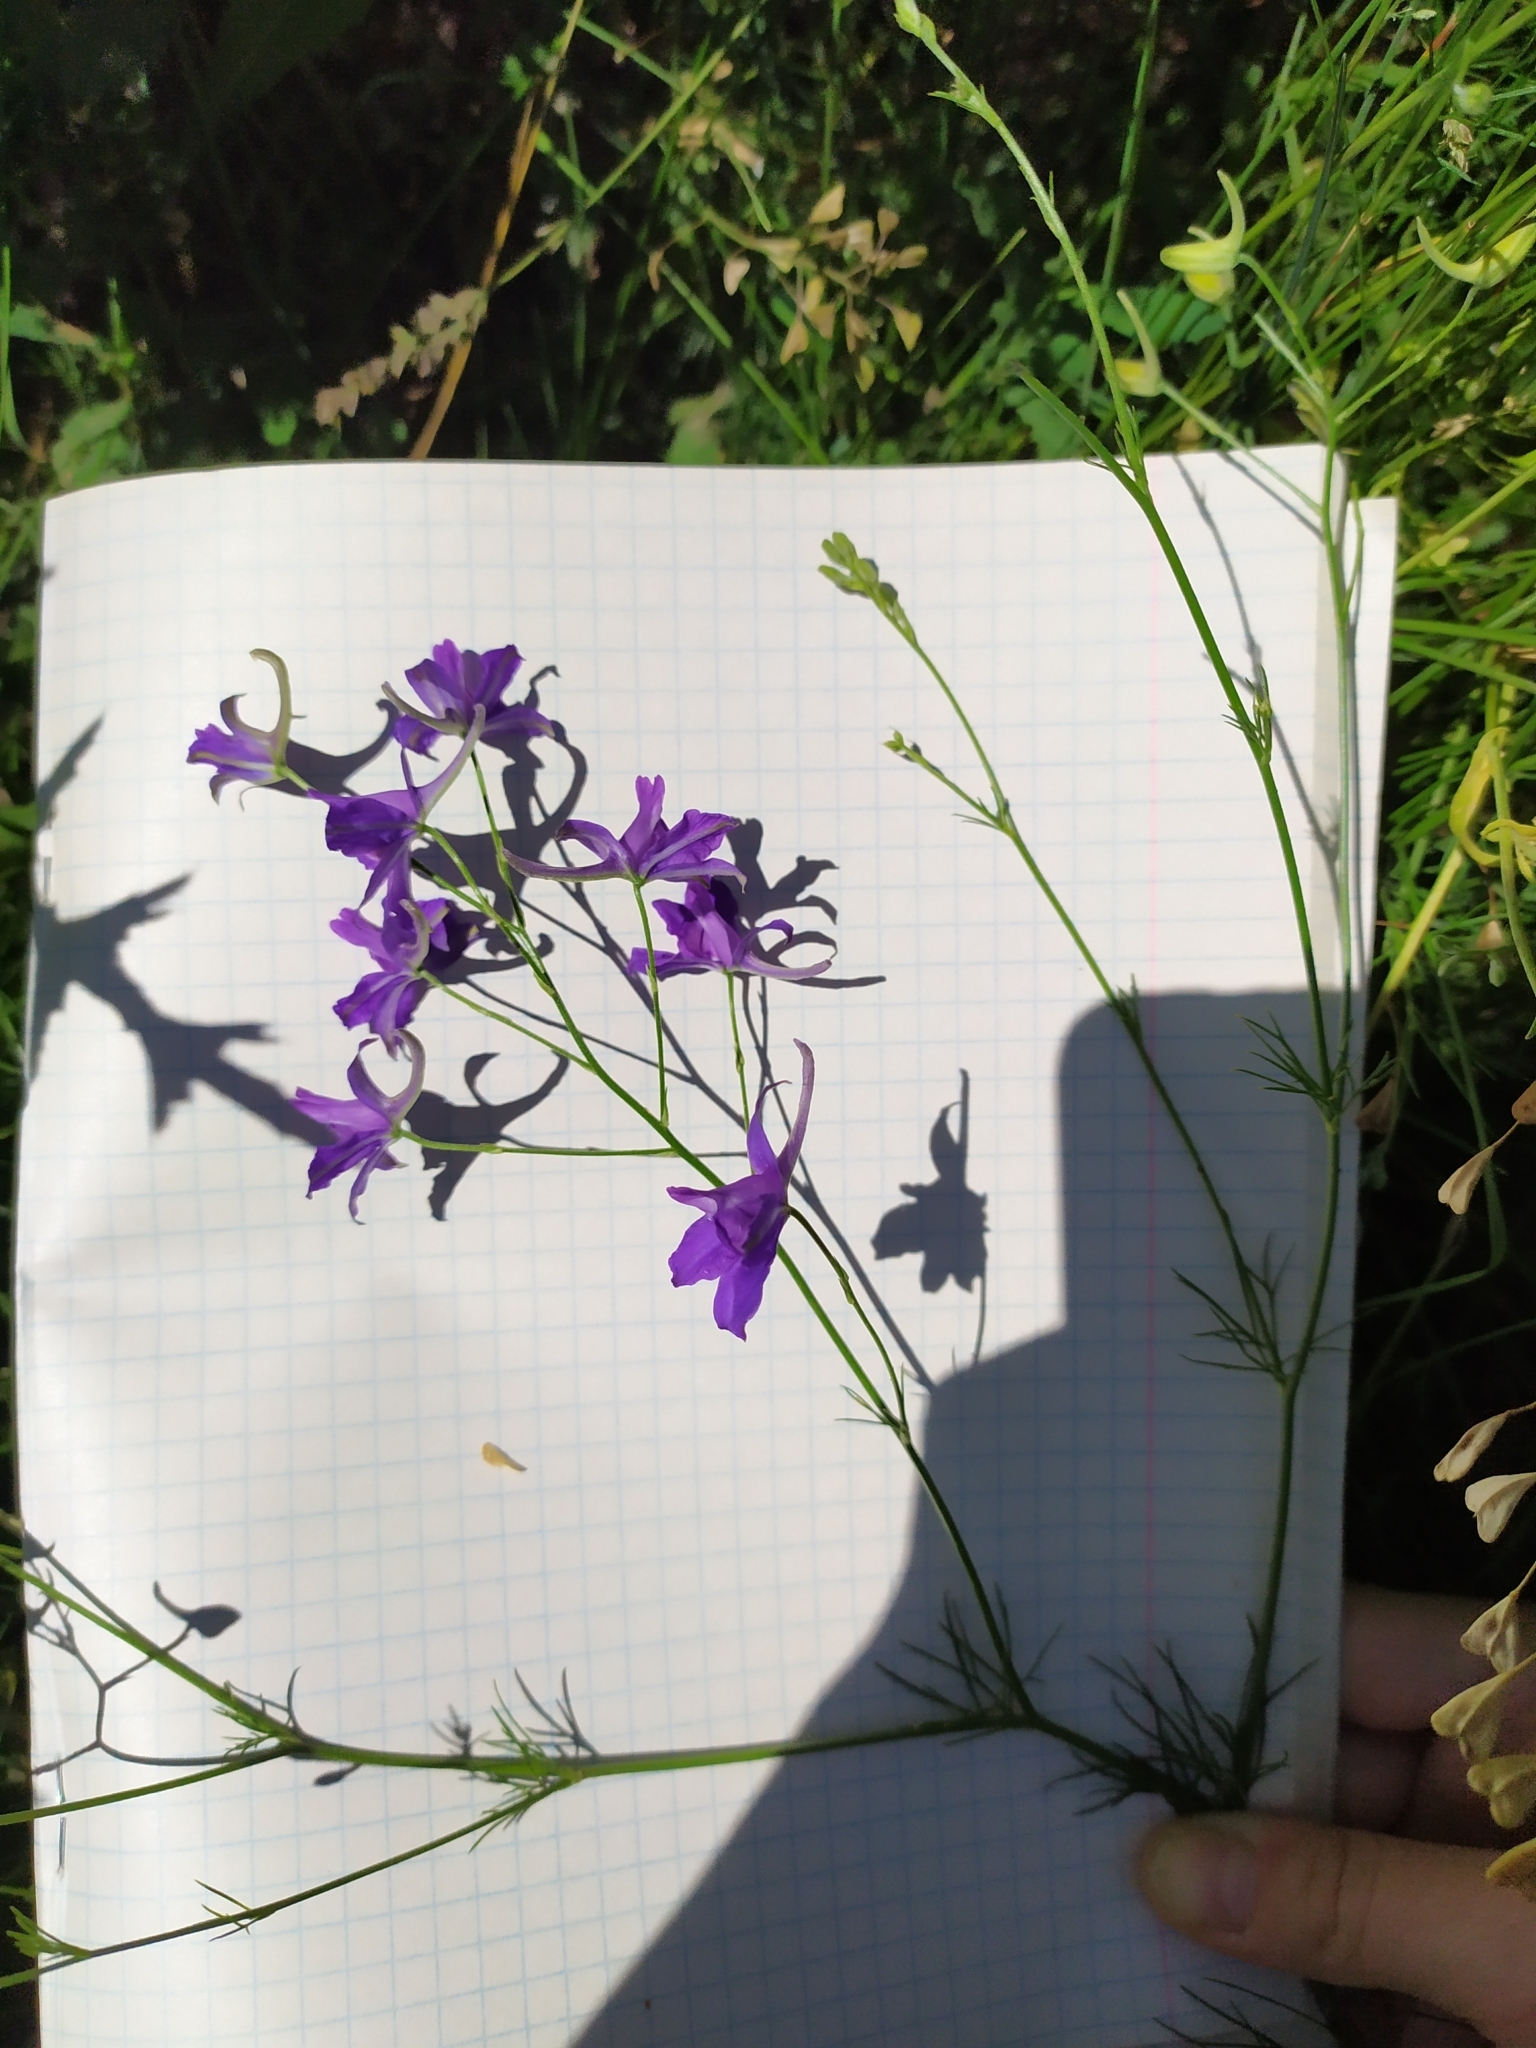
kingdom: Plantae
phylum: Tracheophyta
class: Magnoliopsida
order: Ranunculales
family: Ranunculaceae
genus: Delphinium
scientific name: Delphinium consolida
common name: Branching larkspur
